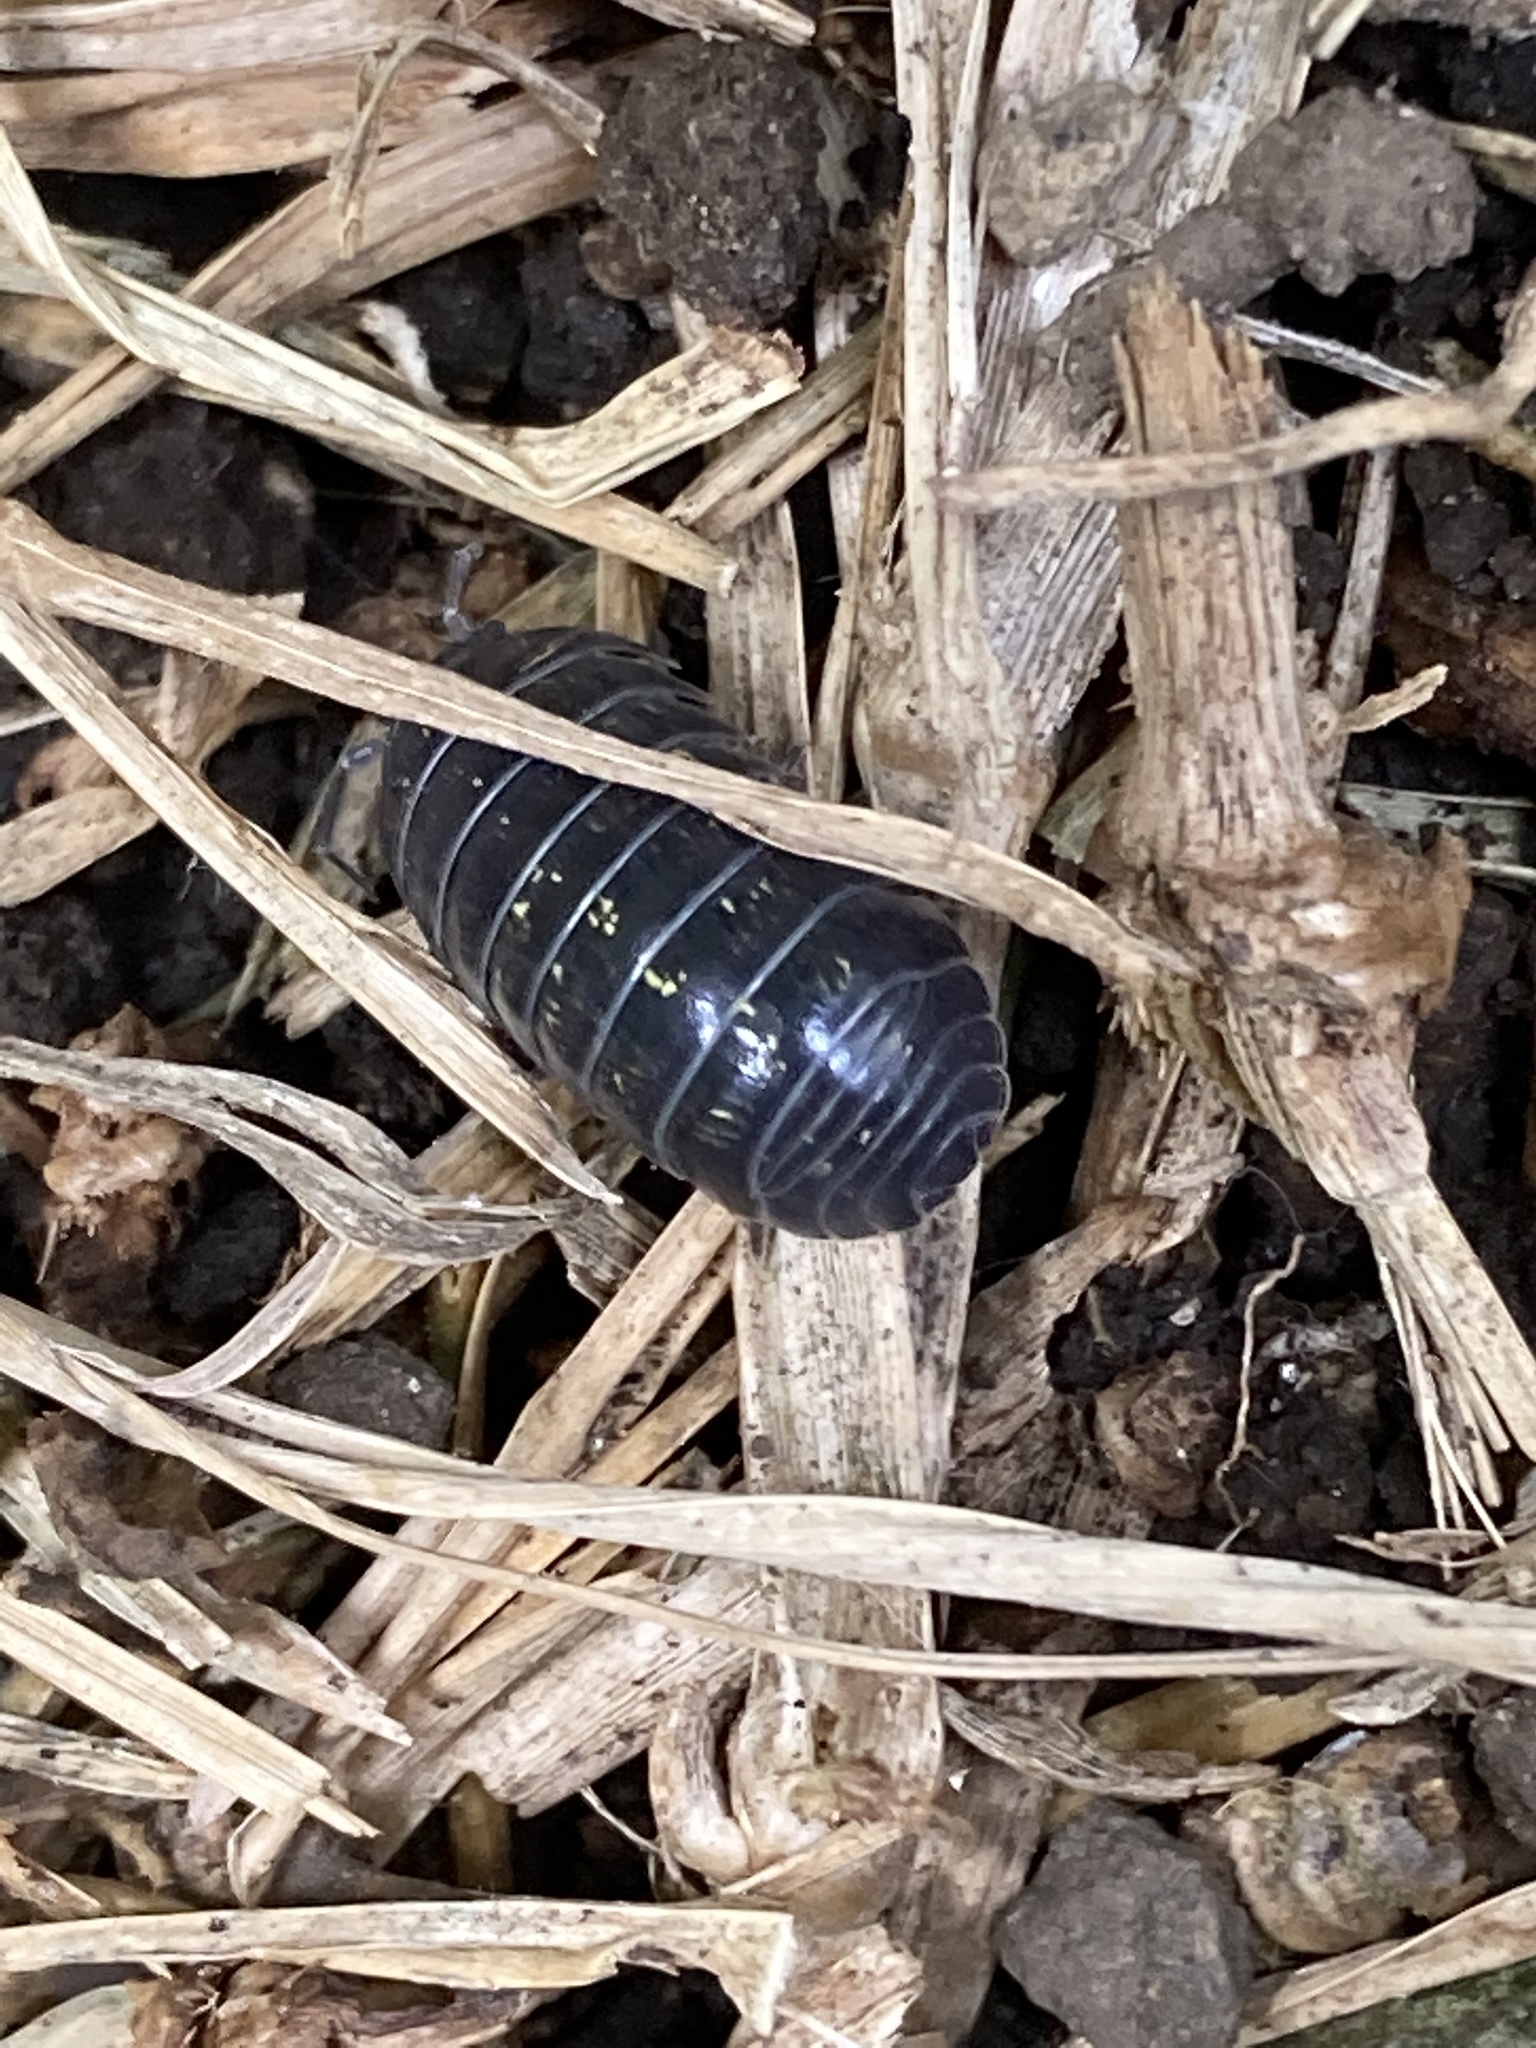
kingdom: Animalia
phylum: Arthropoda
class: Malacostraca
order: Isopoda
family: Armadillidiidae
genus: Armadillidium
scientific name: Armadillidium vulgare
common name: Common pill woodlouse
